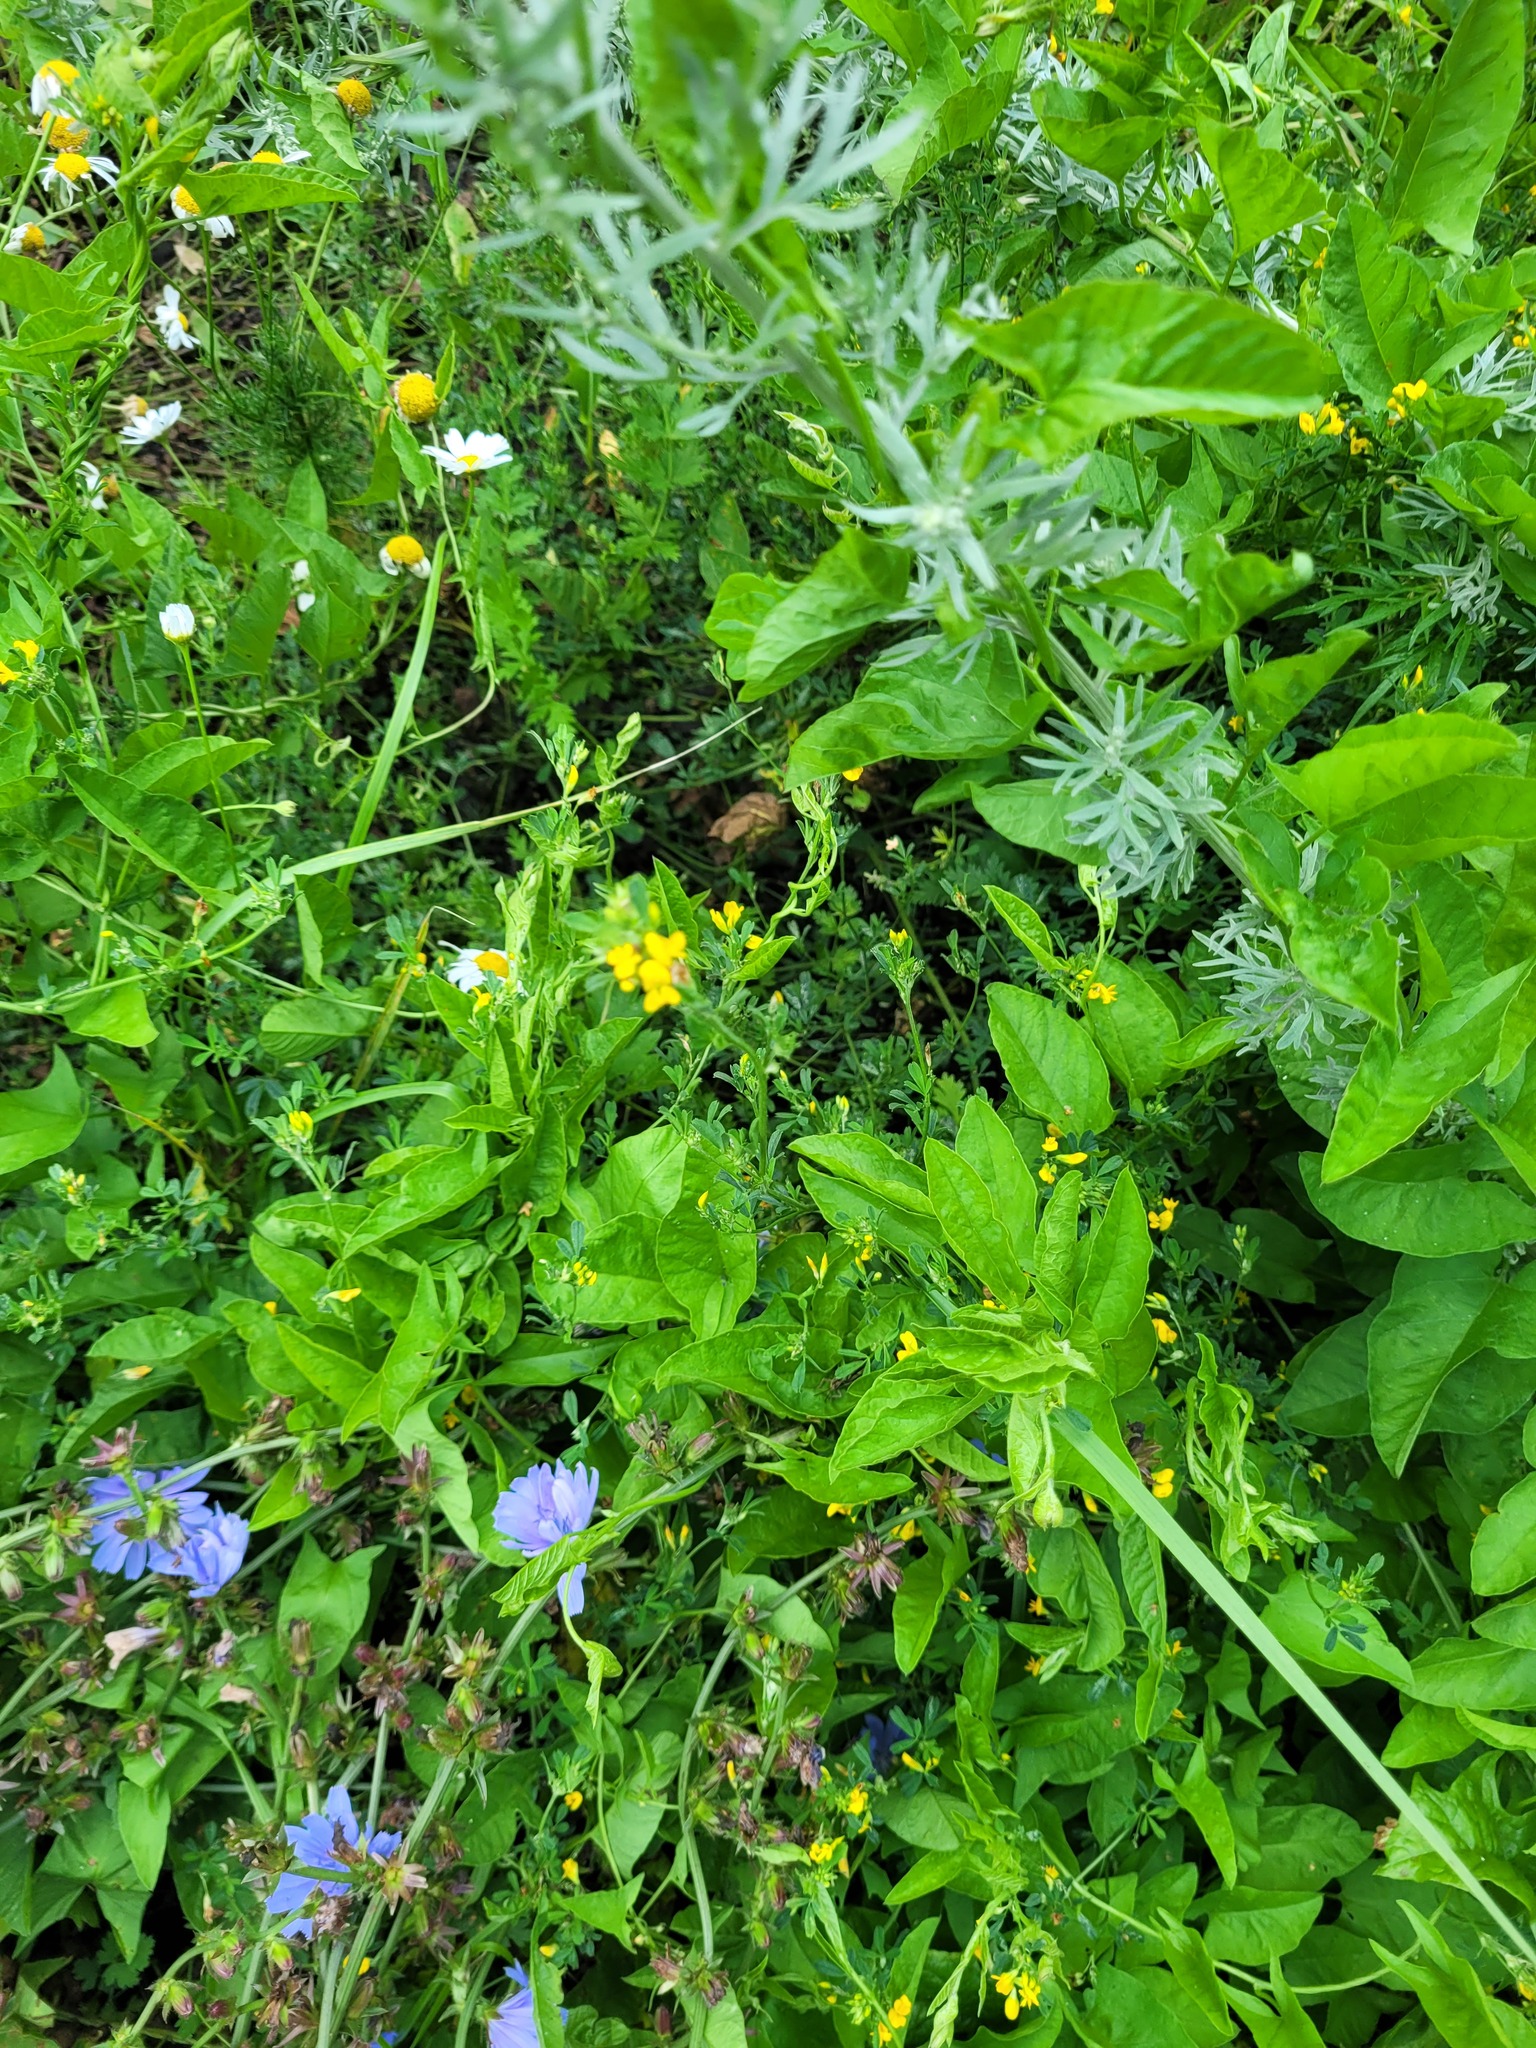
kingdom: Plantae
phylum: Tracheophyta
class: Magnoliopsida
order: Fabales
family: Fabaceae
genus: Medicago
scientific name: Medicago falcata
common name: Sickle medick
